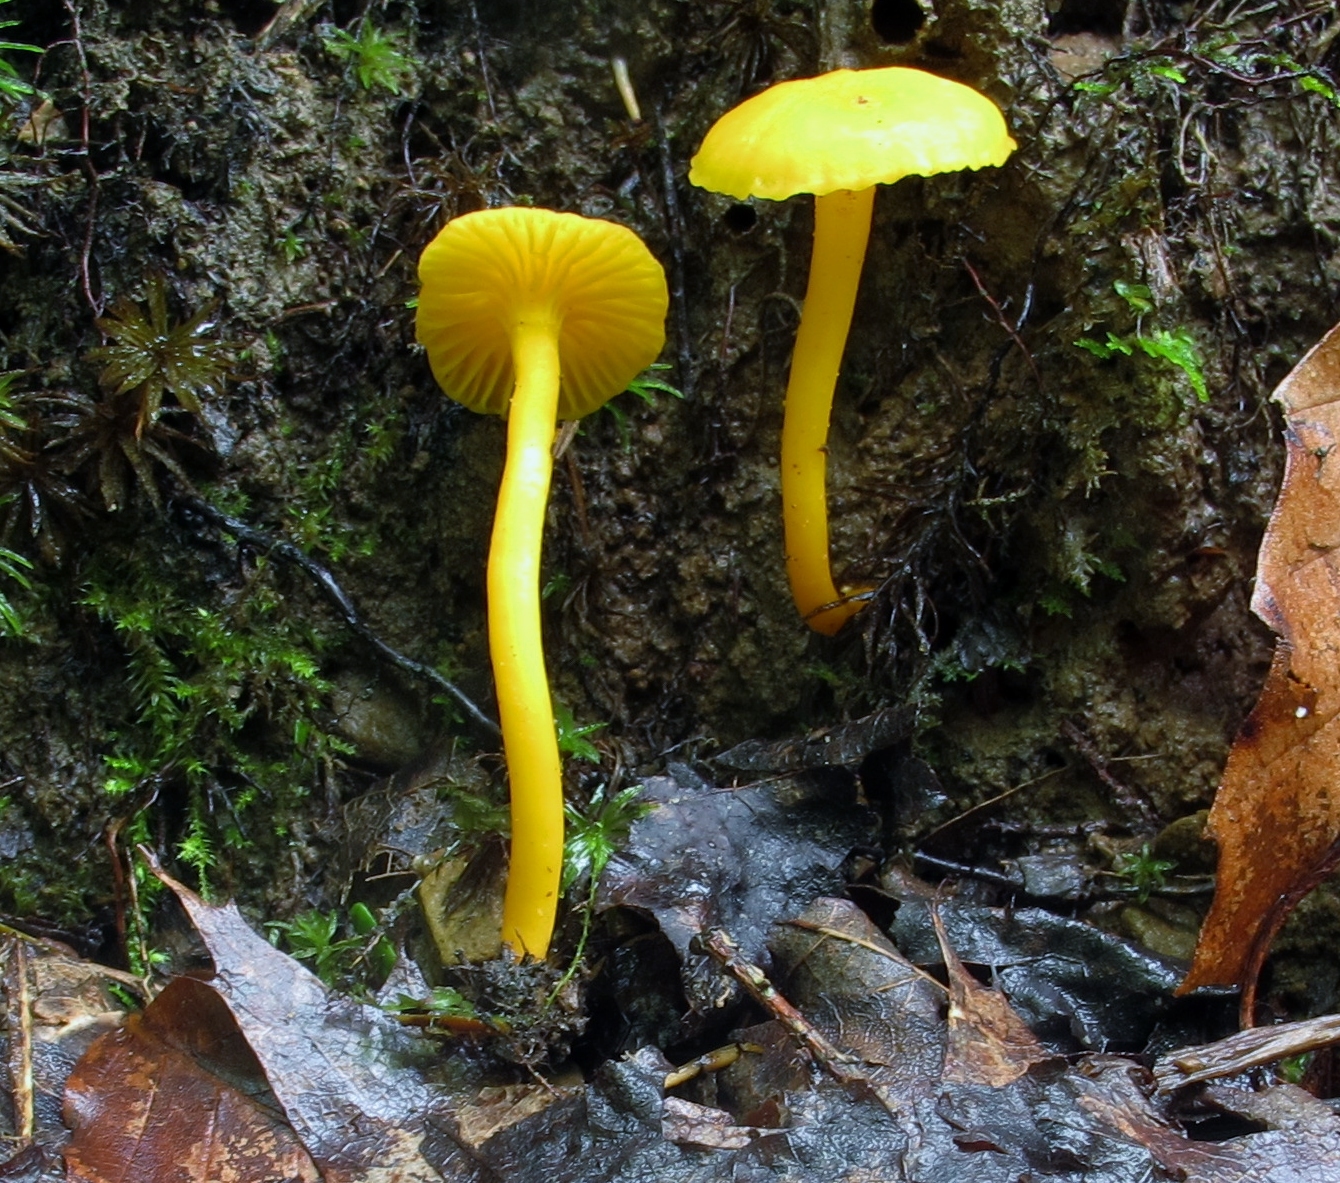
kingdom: Fungi
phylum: Basidiomycota
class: Agaricomycetes
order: Cantharellales
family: Hydnaceae
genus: Cantharellus
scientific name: Cantharellus minor
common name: Small chanterelle
